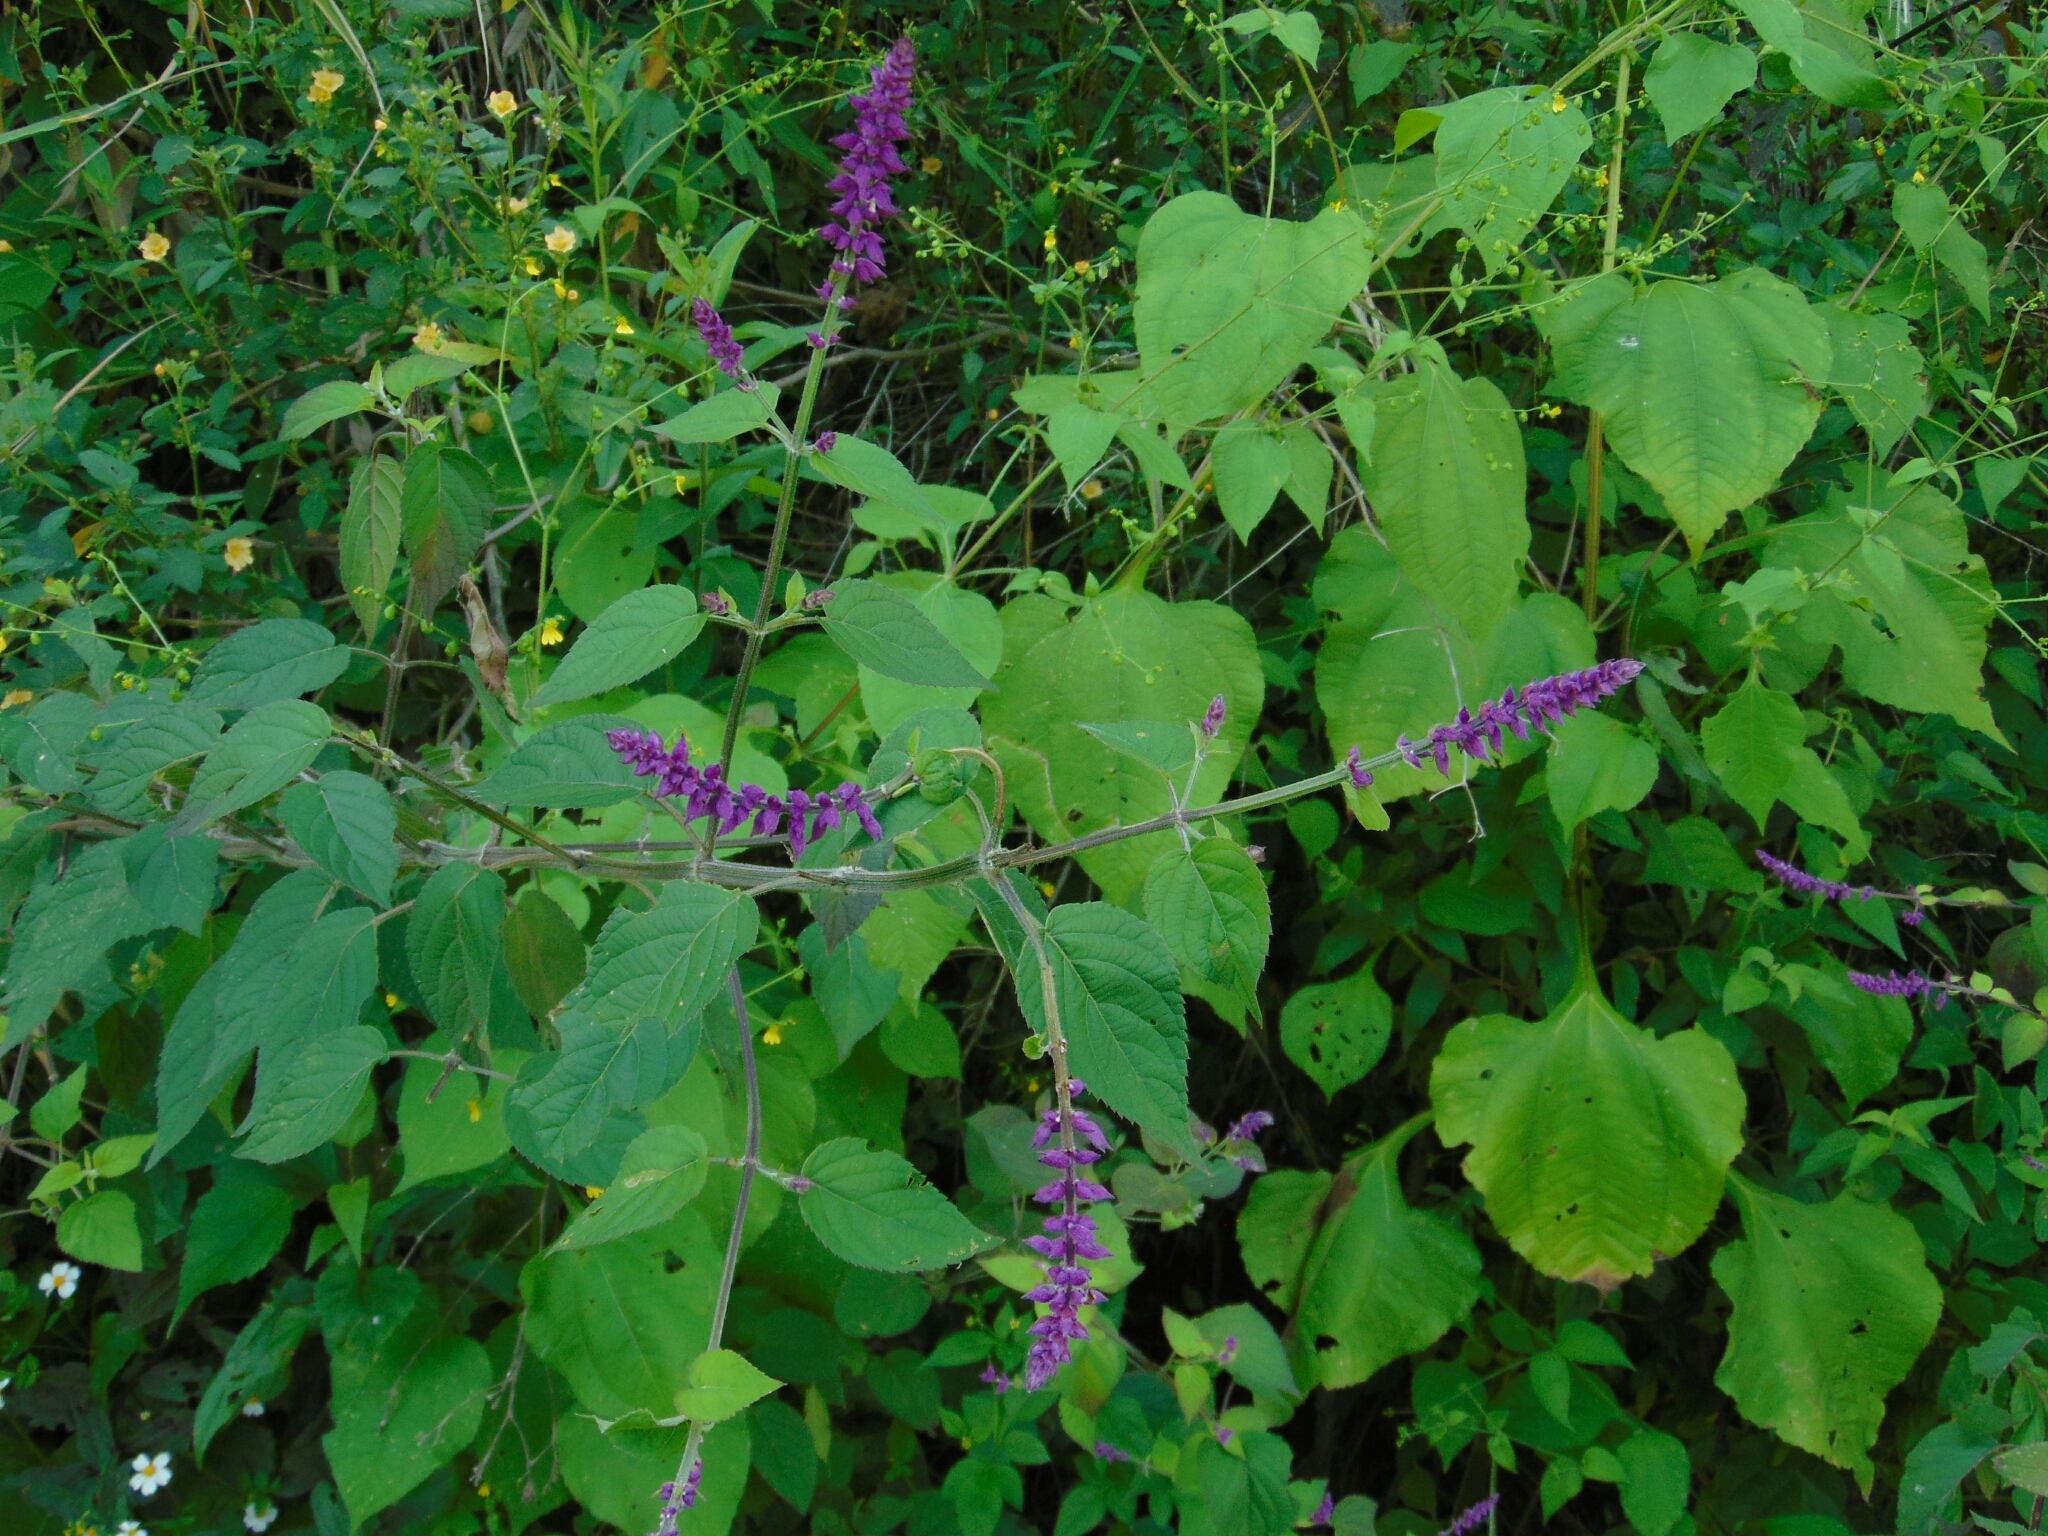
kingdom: Plantae
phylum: Tracheophyta
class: Magnoliopsida
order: Lamiales
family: Lamiaceae
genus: Salvia
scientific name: Salvia tonaticensis
